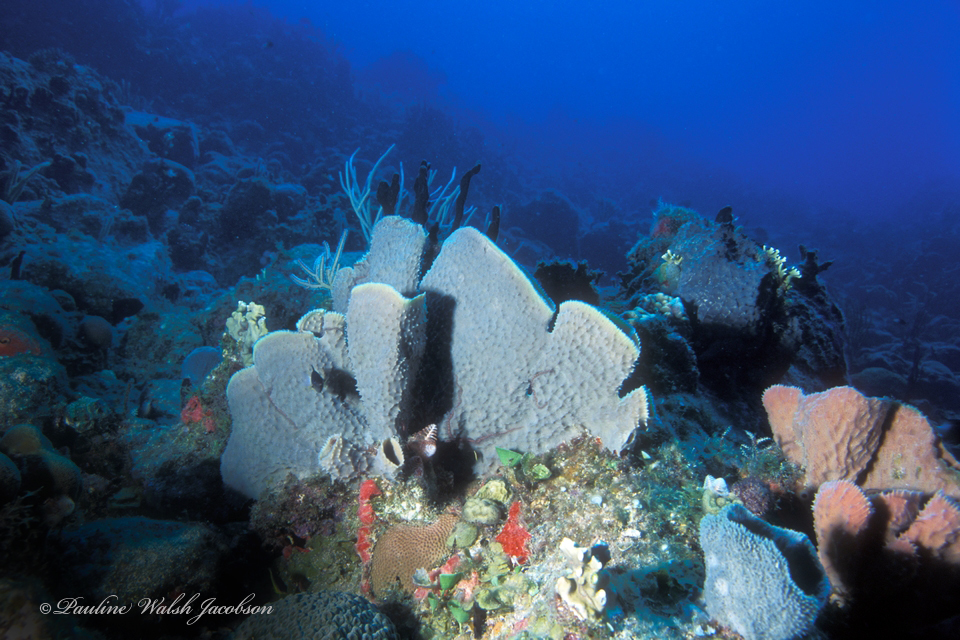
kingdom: Animalia
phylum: Porifera
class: Demospongiae
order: Haplosclerida
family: Callyspongiidae
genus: Callyspongia
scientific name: Callyspongia aculeata
